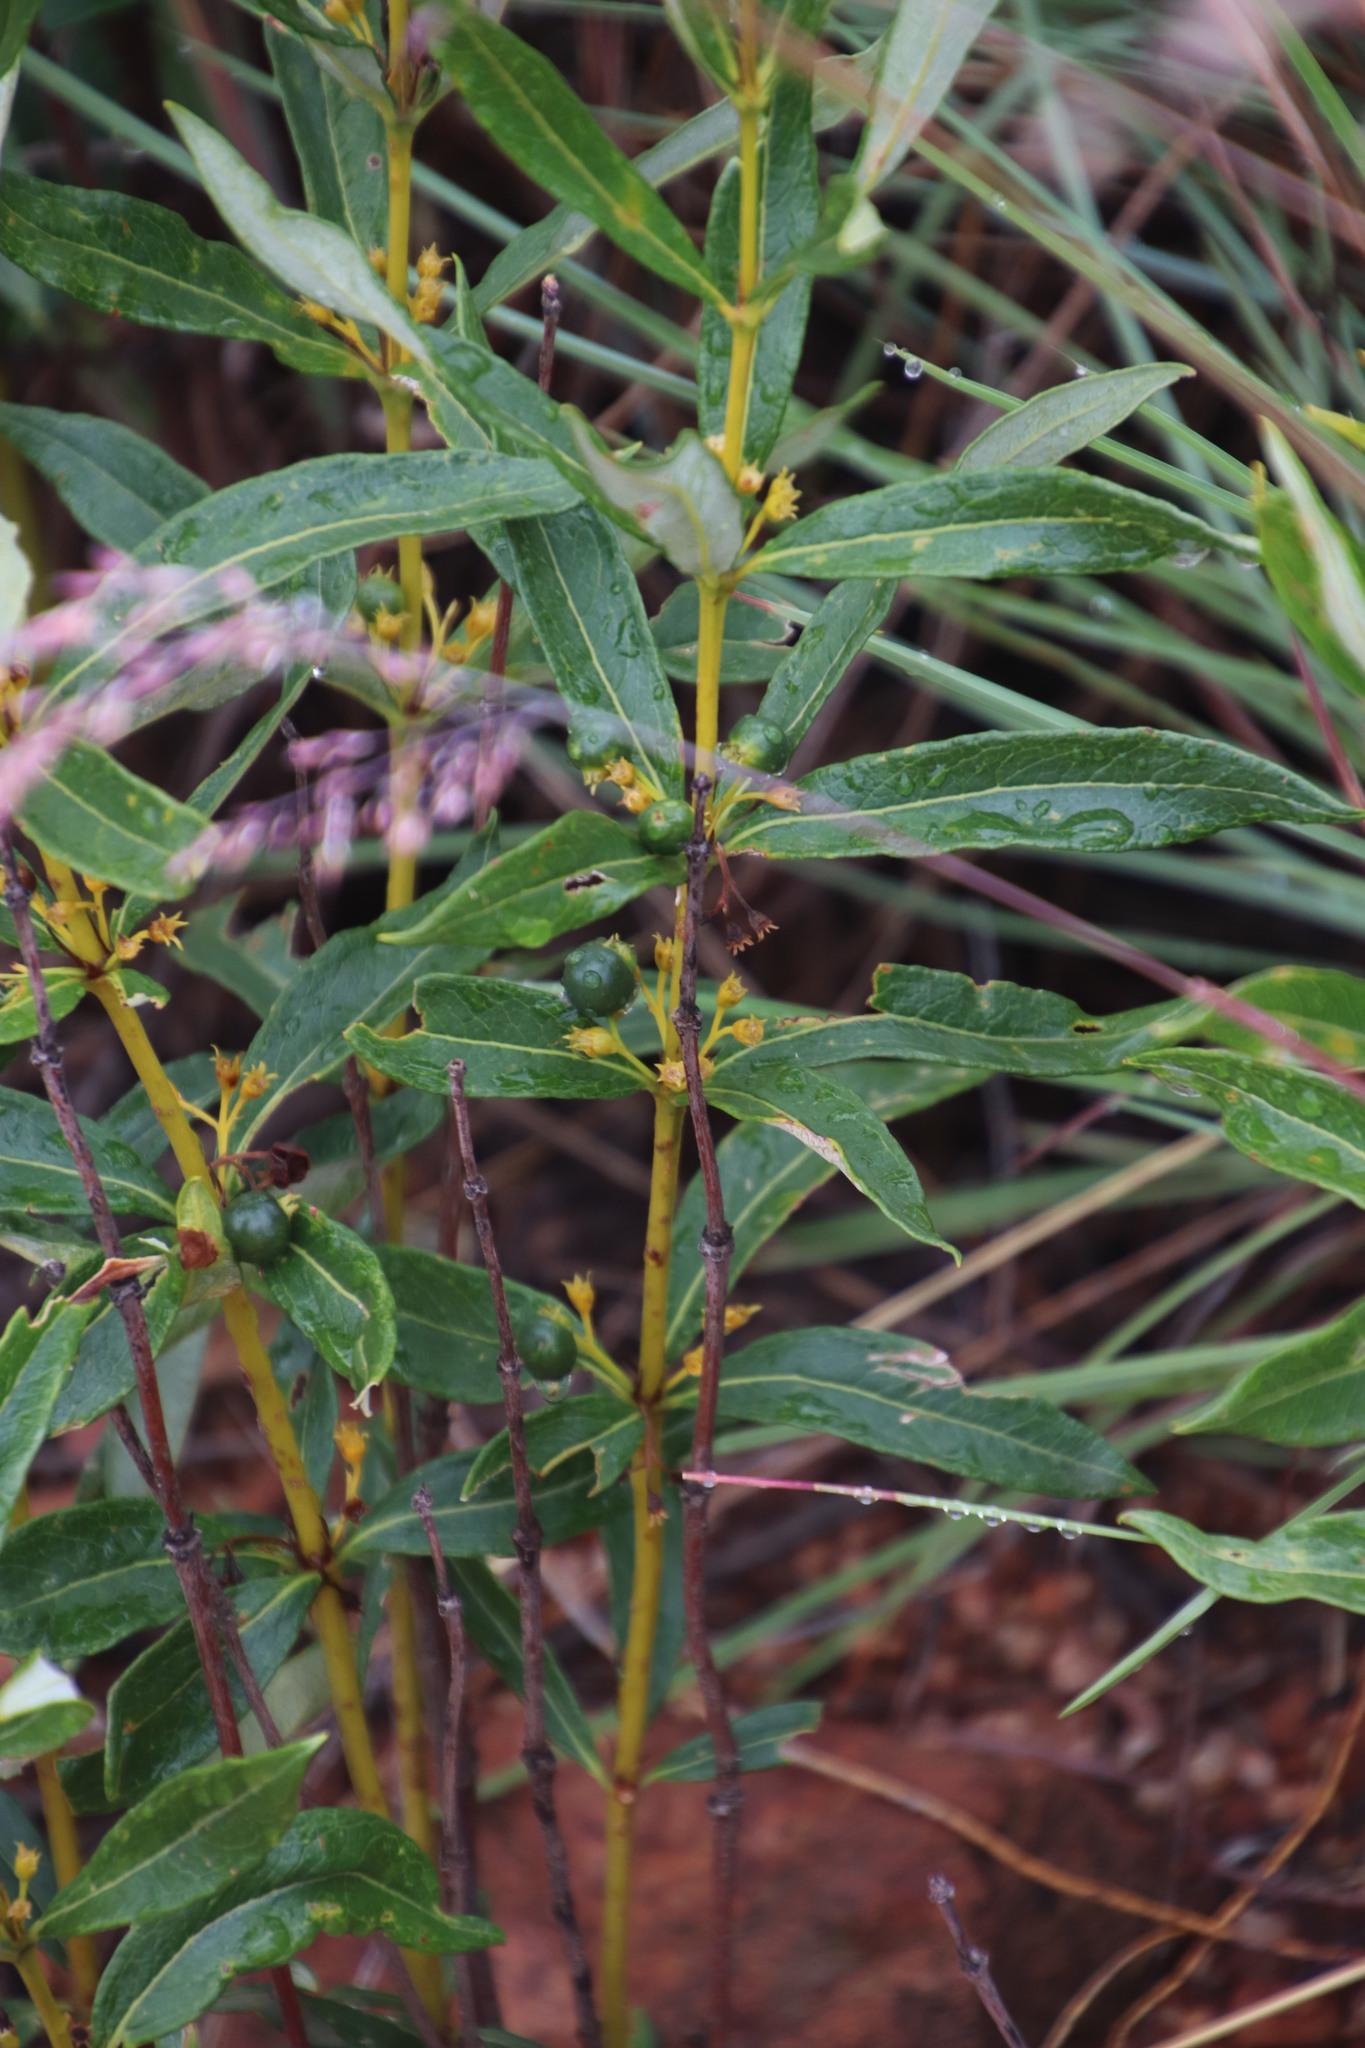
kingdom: Plantae
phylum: Tracheophyta
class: Magnoliopsida
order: Gentianales
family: Rubiaceae
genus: Fadogia
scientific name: Fadogia homblei
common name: Wild date
